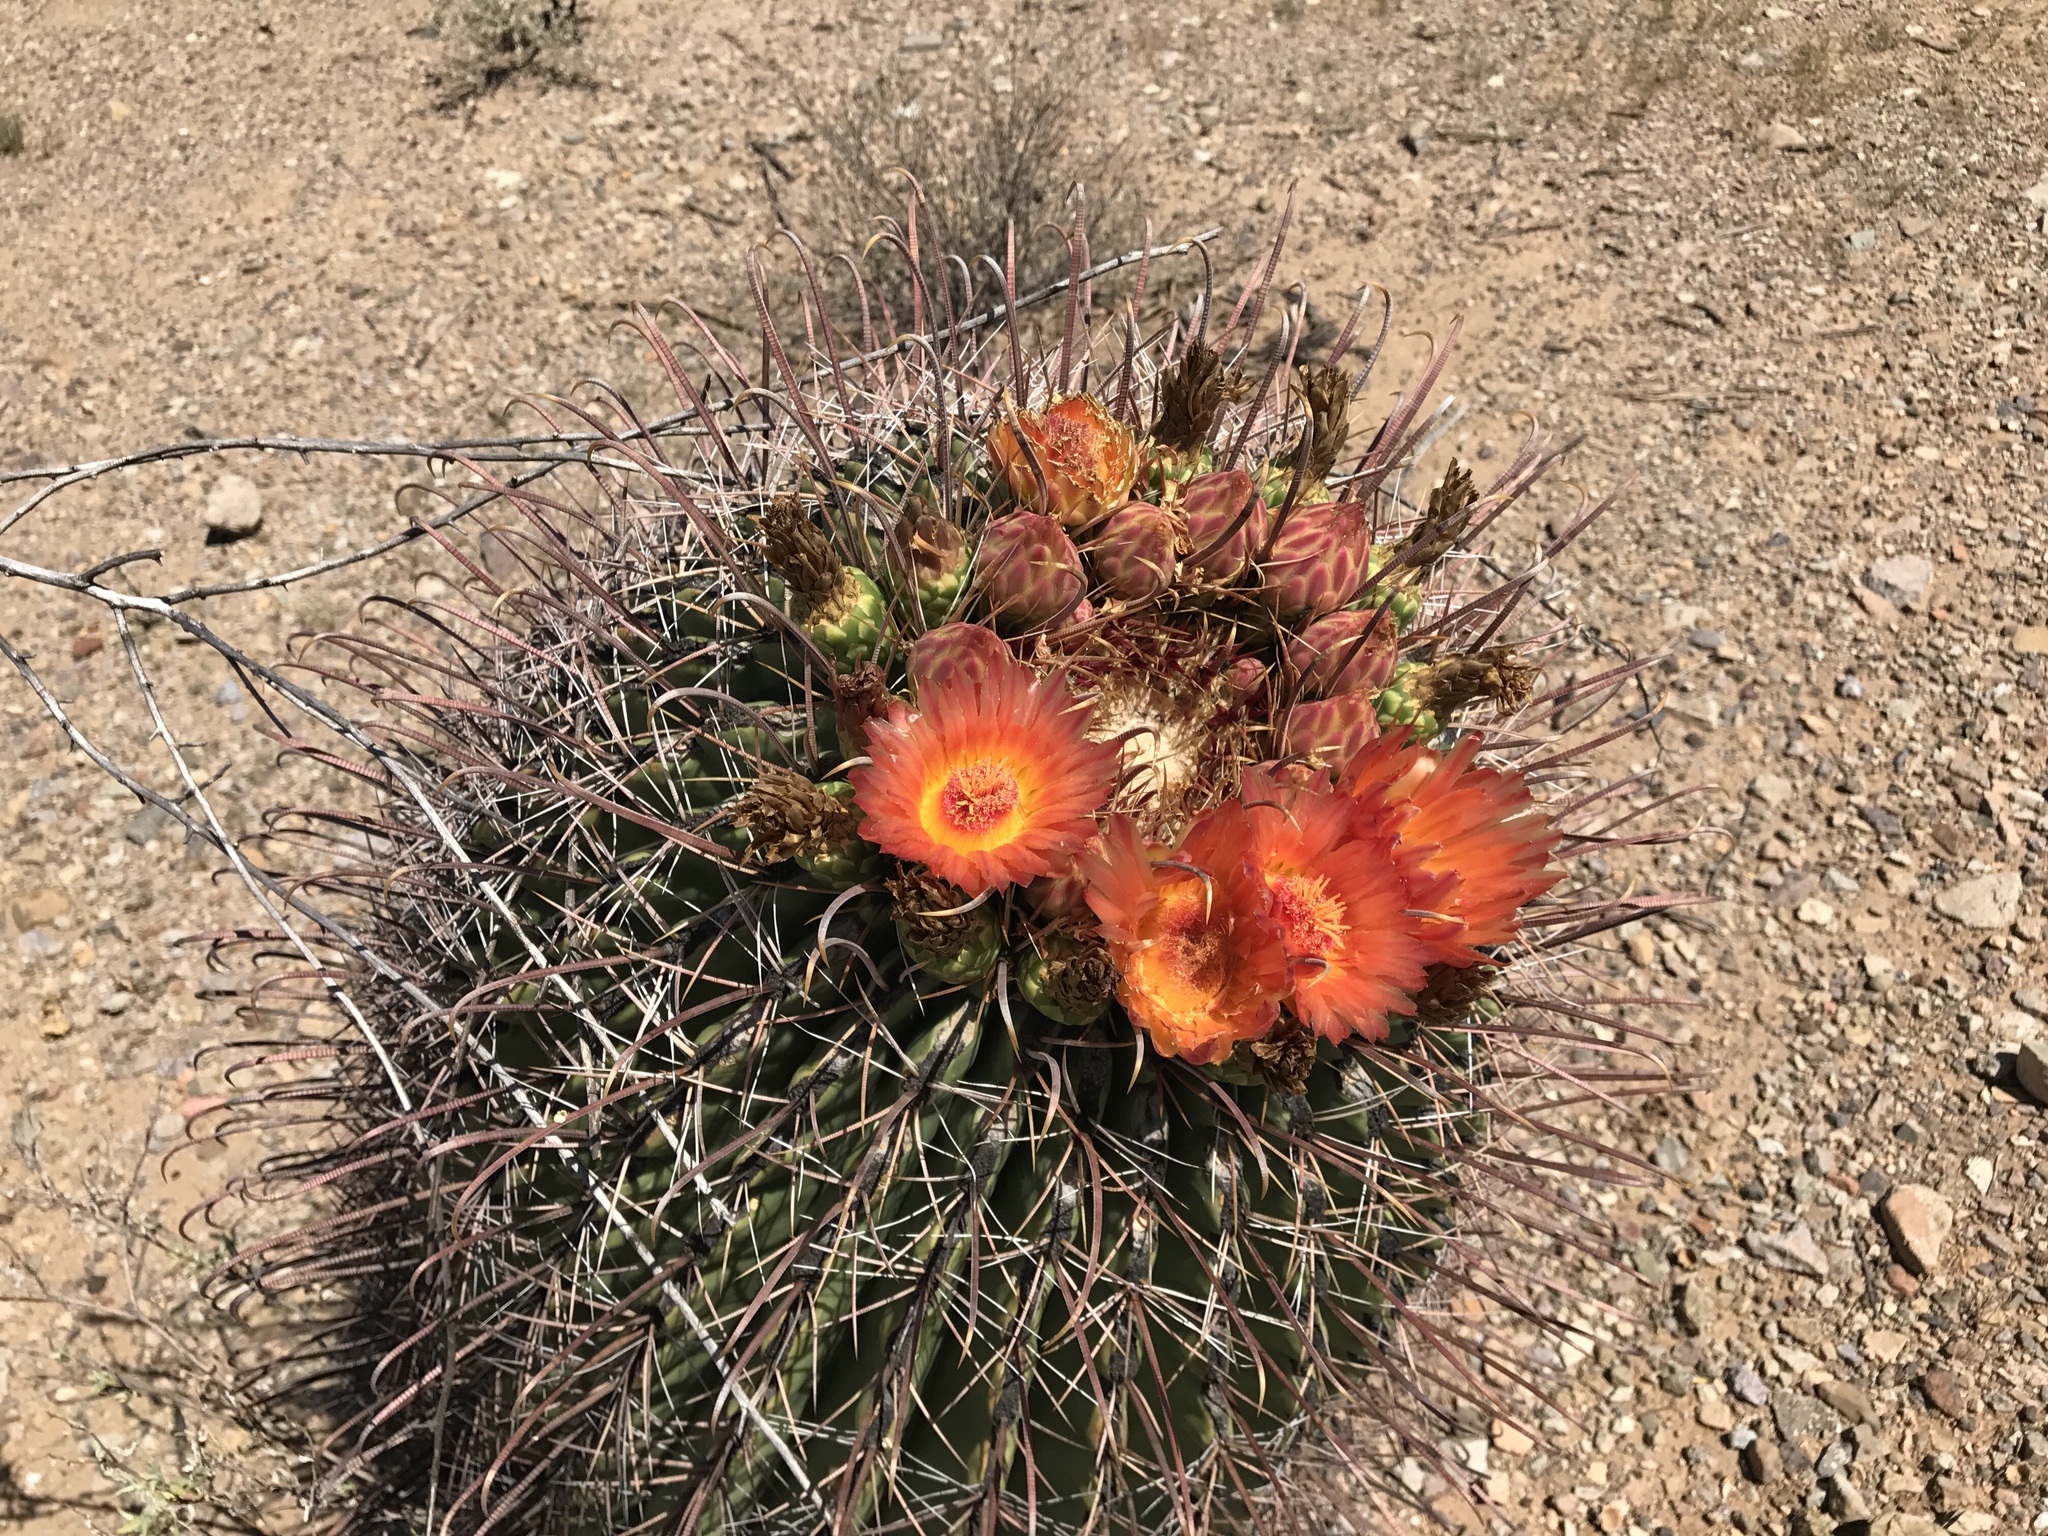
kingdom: Plantae
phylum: Tracheophyta
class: Magnoliopsida
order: Caryophyllales
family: Cactaceae
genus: Ferocactus
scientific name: Ferocactus wislizeni
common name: Candy barrel cactus
